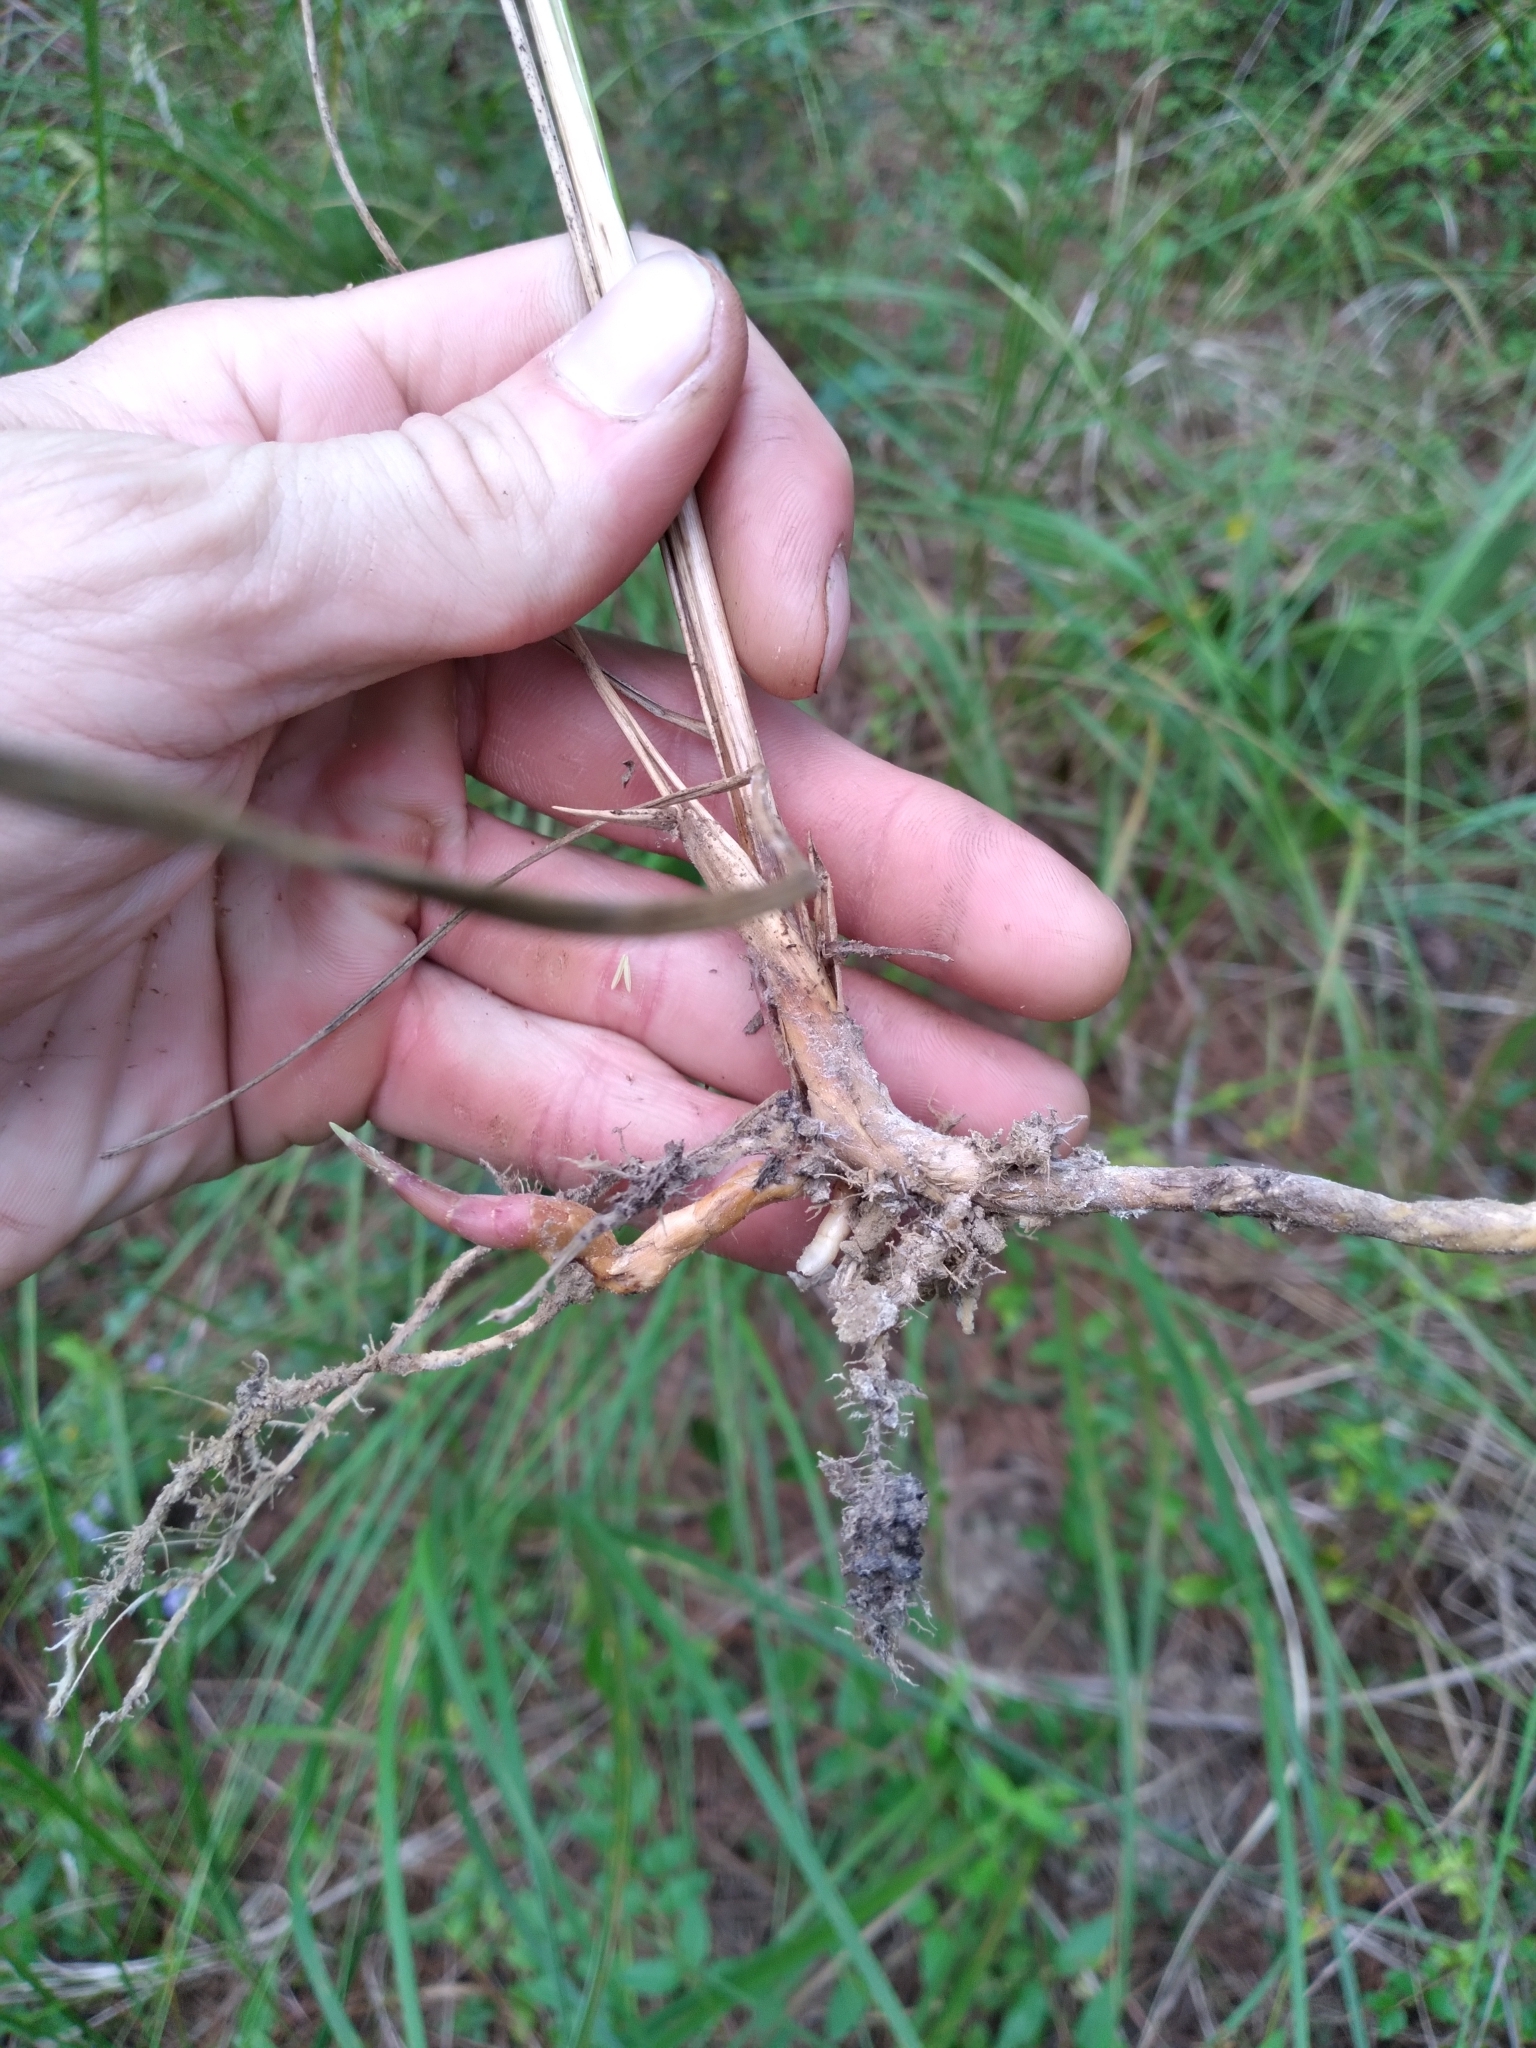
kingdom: Plantae
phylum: Tracheophyta
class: Liliopsida
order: Poales
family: Poaceae
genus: Sporobolus
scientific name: Sporobolus michauxianus
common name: Freshwater cordgrass
